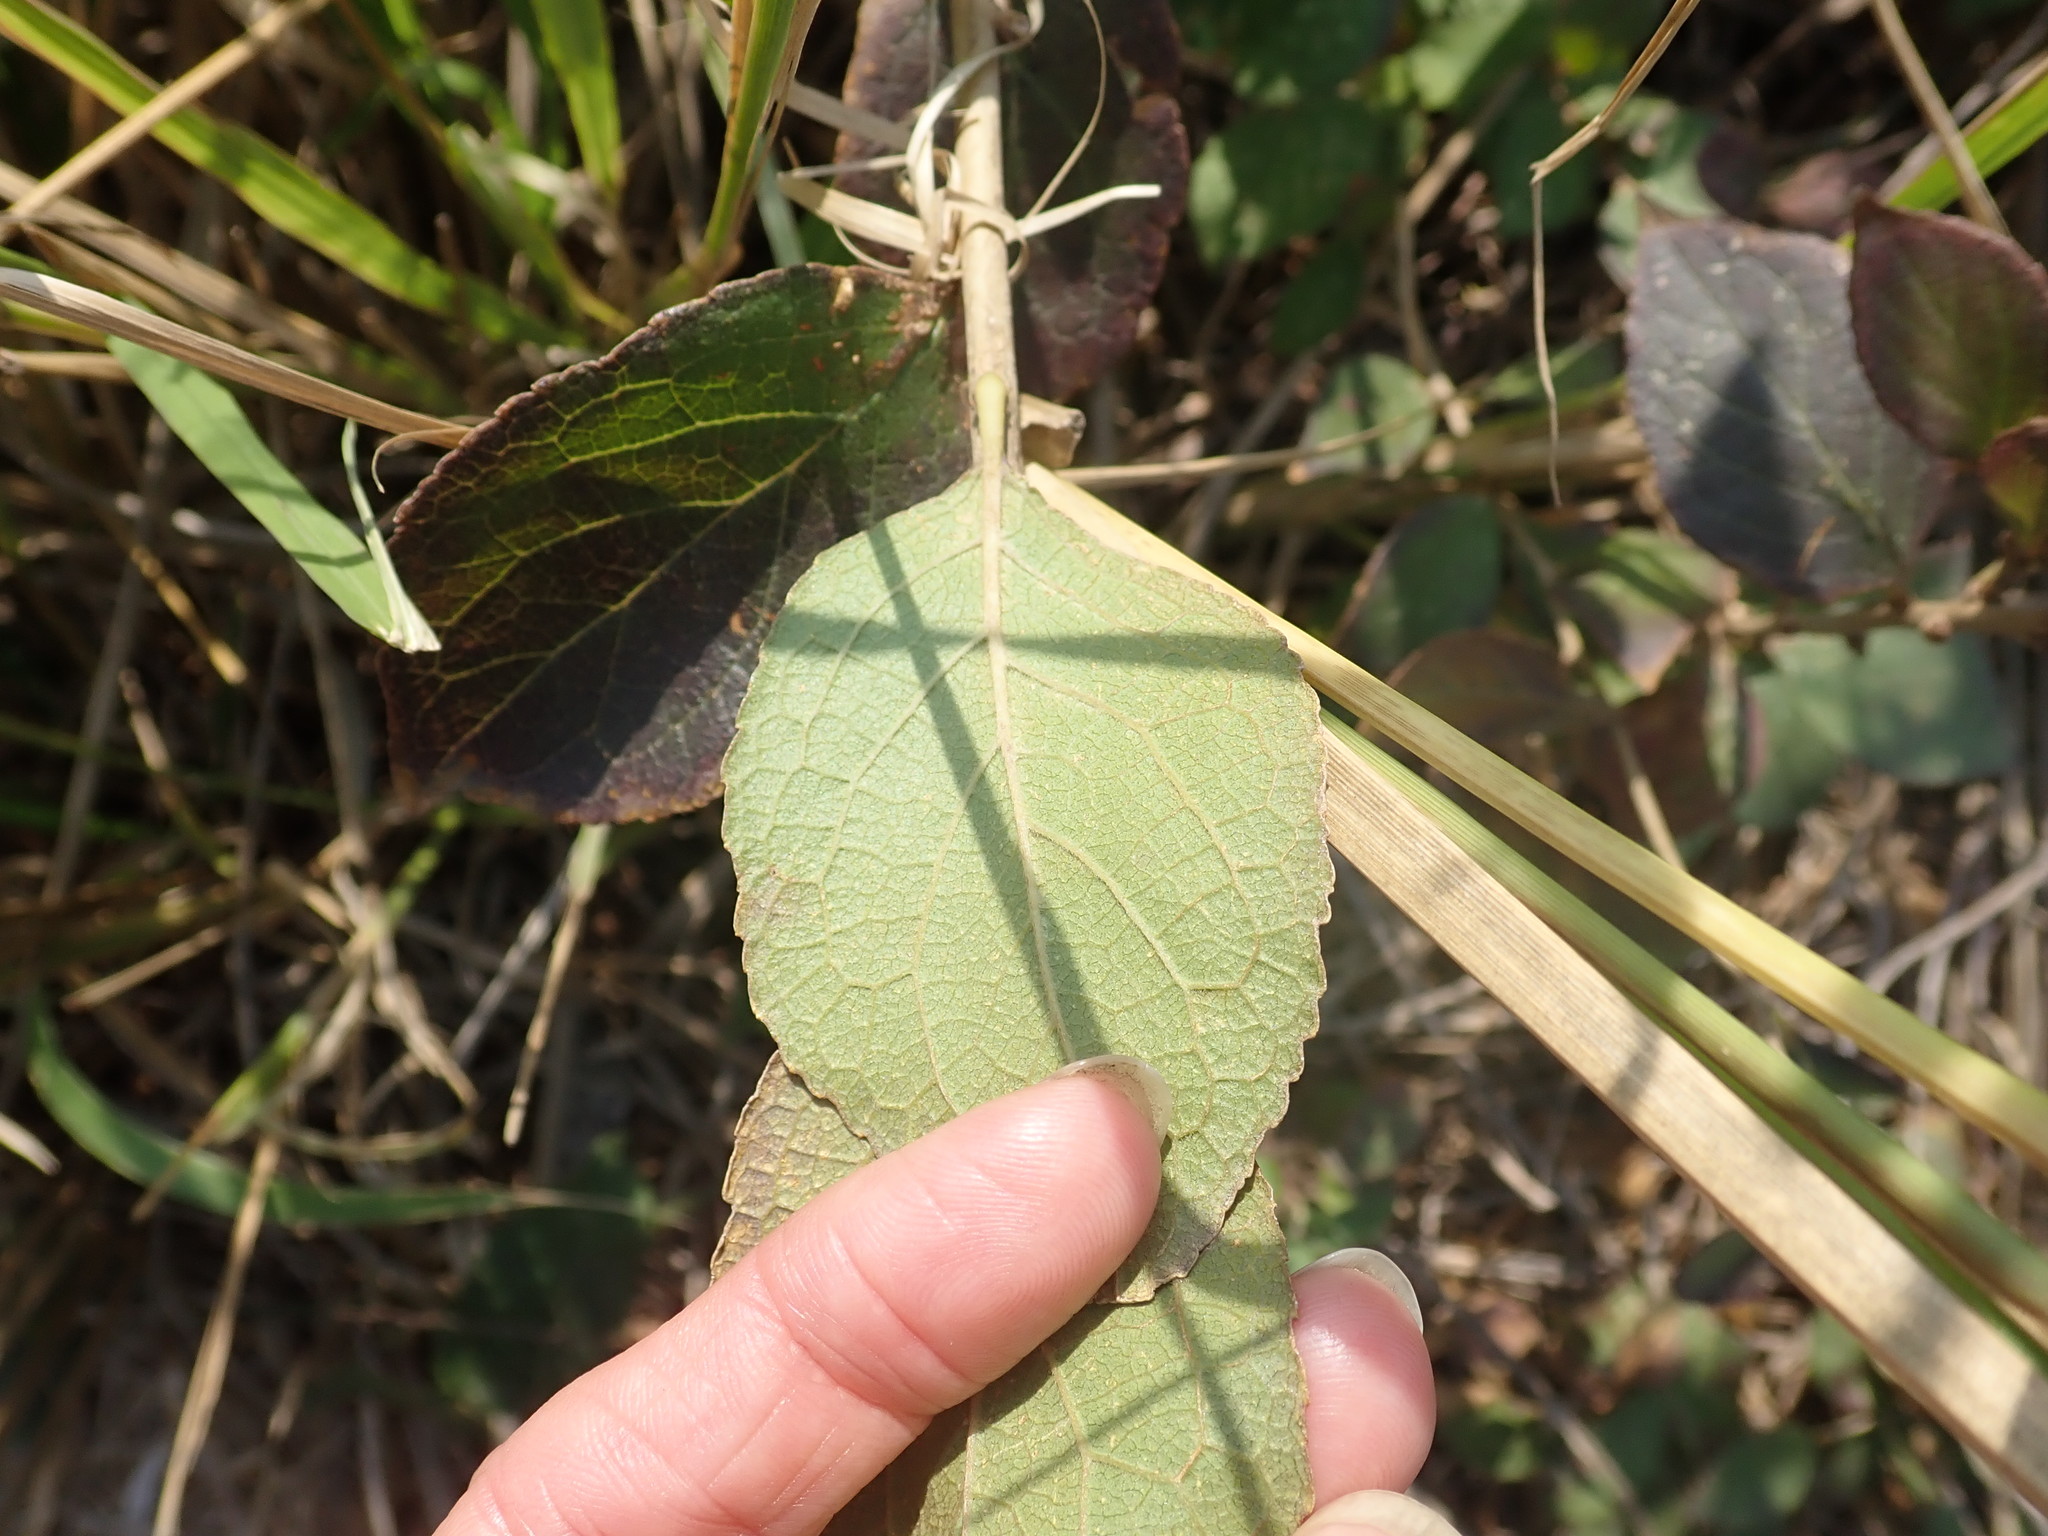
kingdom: Plantae
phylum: Tracheophyta
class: Magnoliopsida
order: Ericales
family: Symplocaceae
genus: Symplocos
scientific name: Symplocos paniculata
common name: Sapphire-berry
